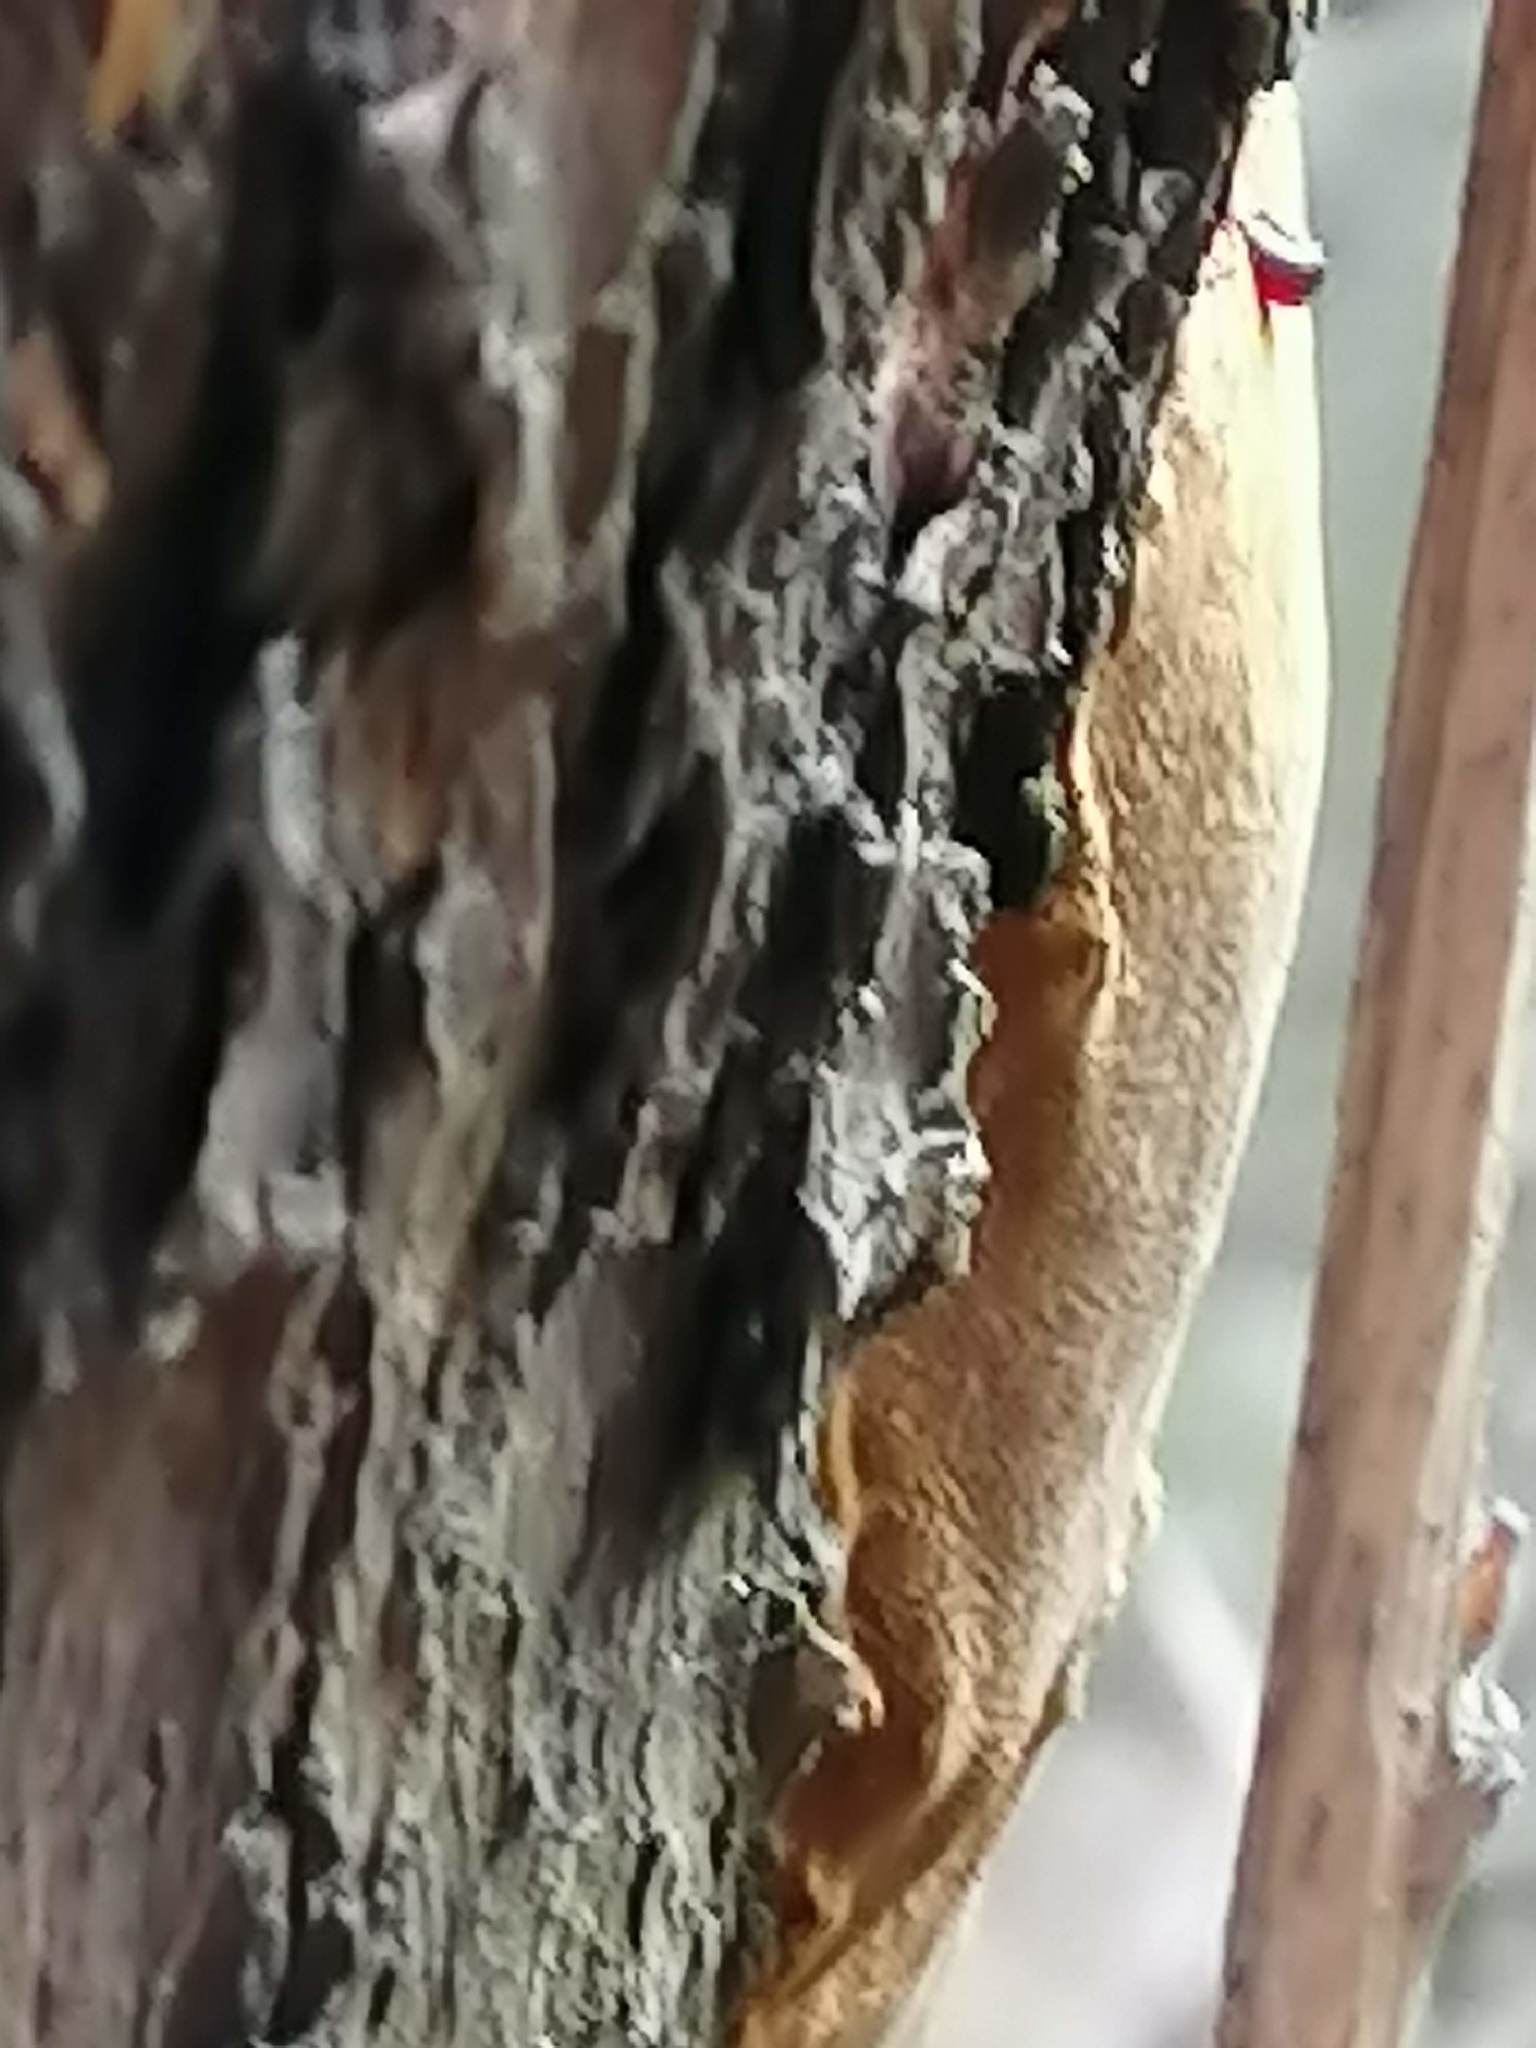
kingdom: Fungi
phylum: Basidiomycota
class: Agaricomycetes
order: Hymenochaetales
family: Hymenochaetaceae
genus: Fomitiporia
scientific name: Fomitiporia punctata
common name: Elbowpatch crust
